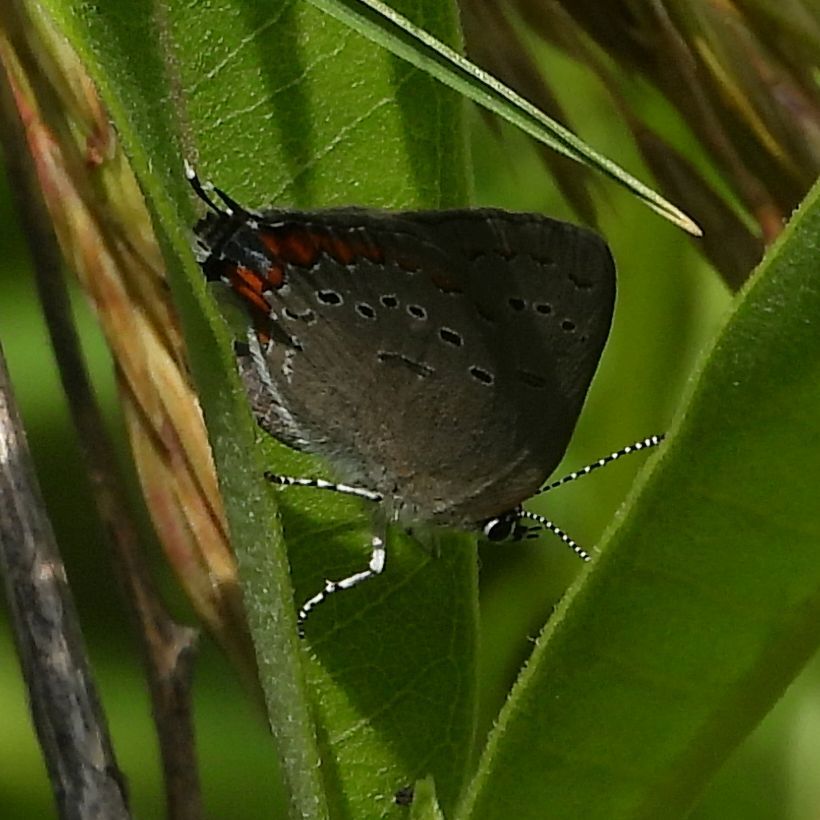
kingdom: Animalia
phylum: Arthropoda
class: Insecta
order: Lepidoptera
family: Lycaenidae
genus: Strymon
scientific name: Strymon acadica
